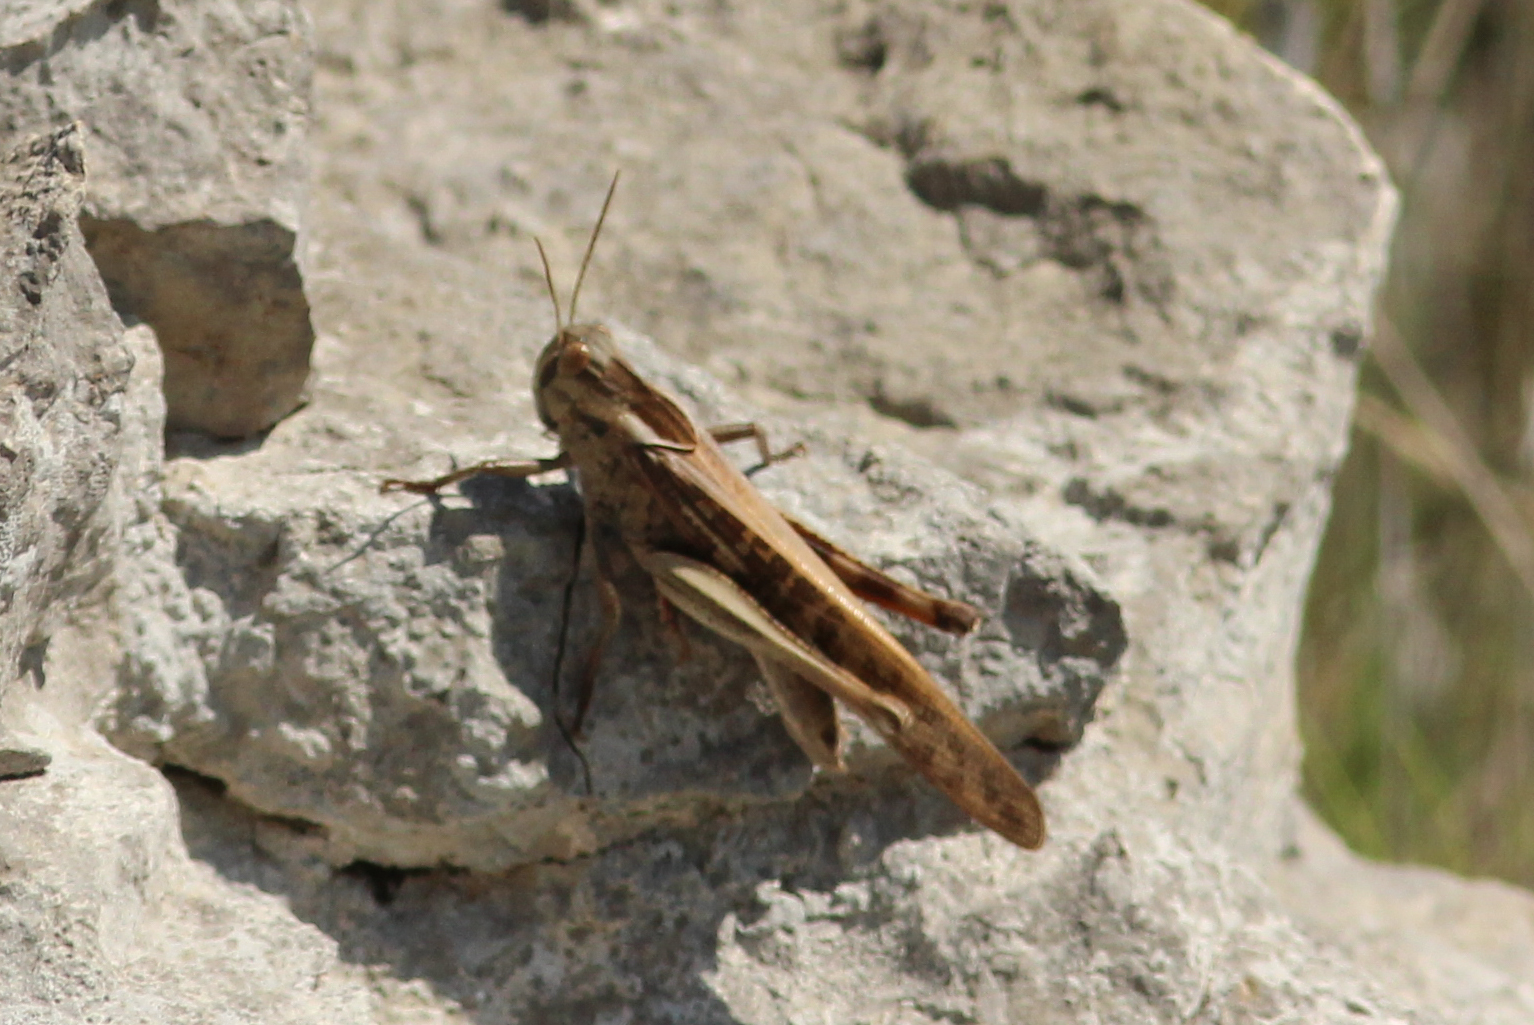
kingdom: Animalia
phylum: Arthropoda
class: Insecta
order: Orthoptera
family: Acrididae
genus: Locusta
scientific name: Locusta migratoria
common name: Migratory locust
